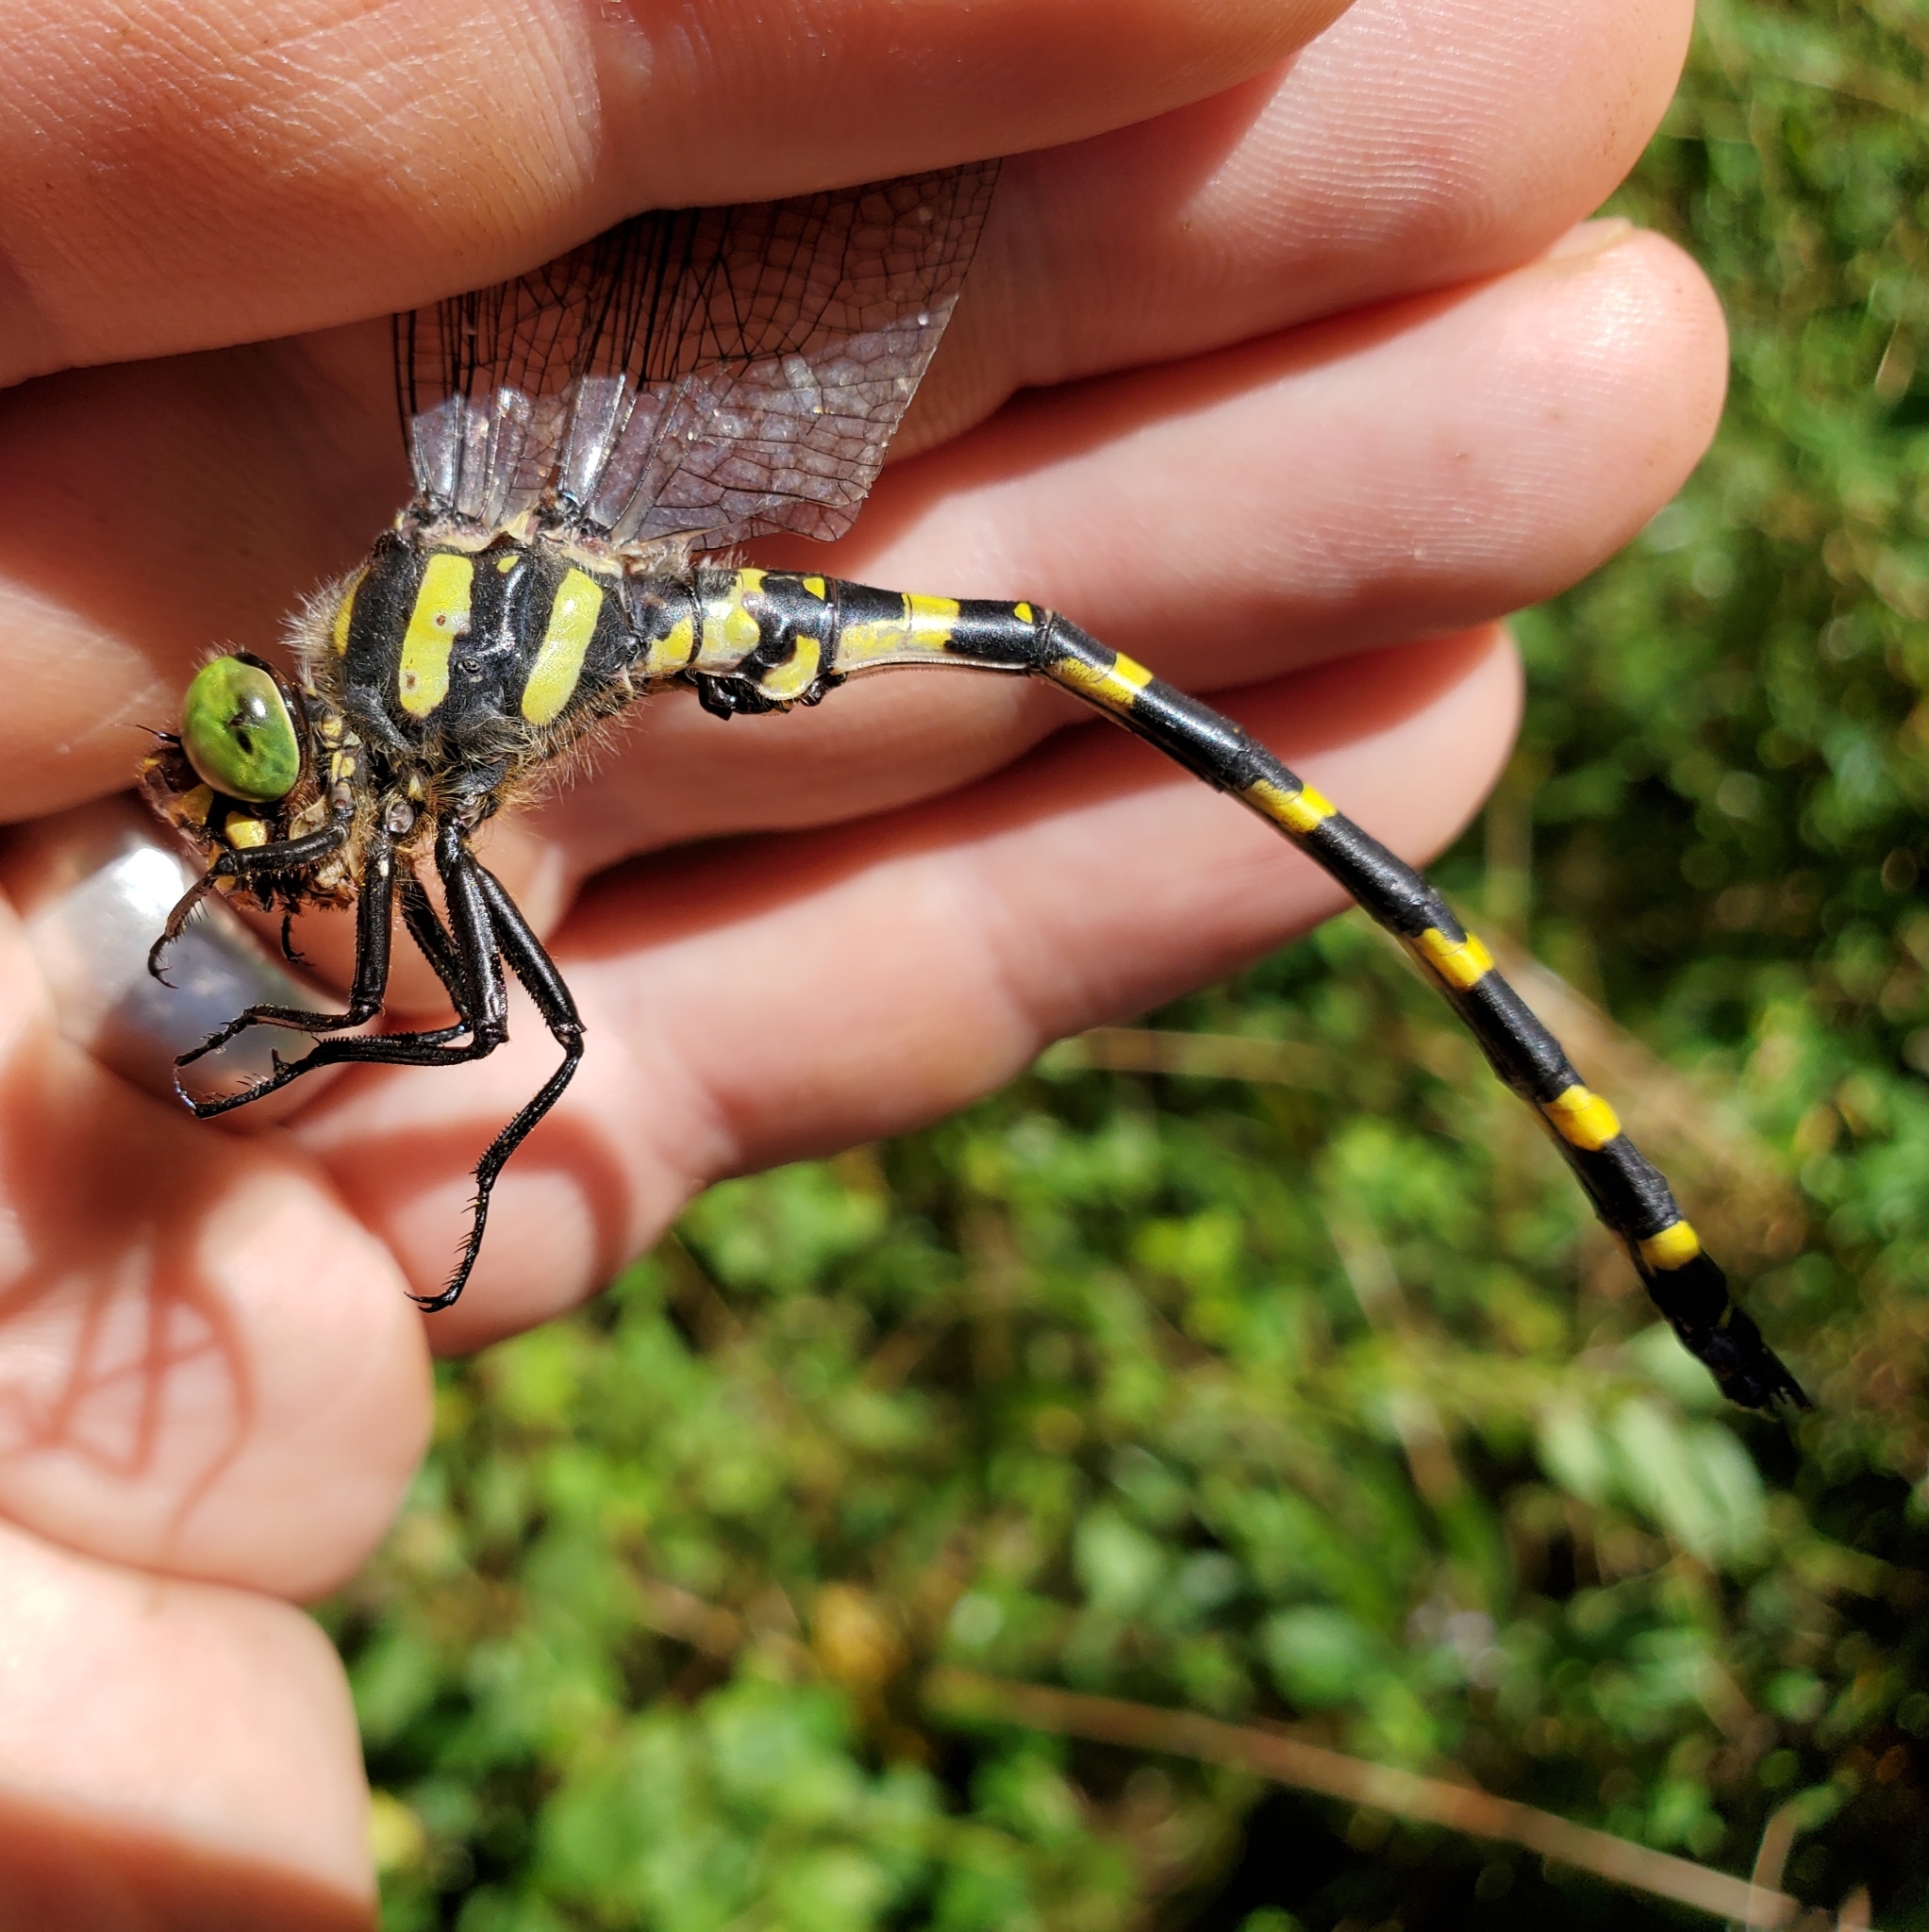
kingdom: Animalia
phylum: Arthropoda
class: Insecta
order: Odonata
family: Cordulegastridae
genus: Cordulegaster
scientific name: Cordulegaster erronea
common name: Tiger spiketail
